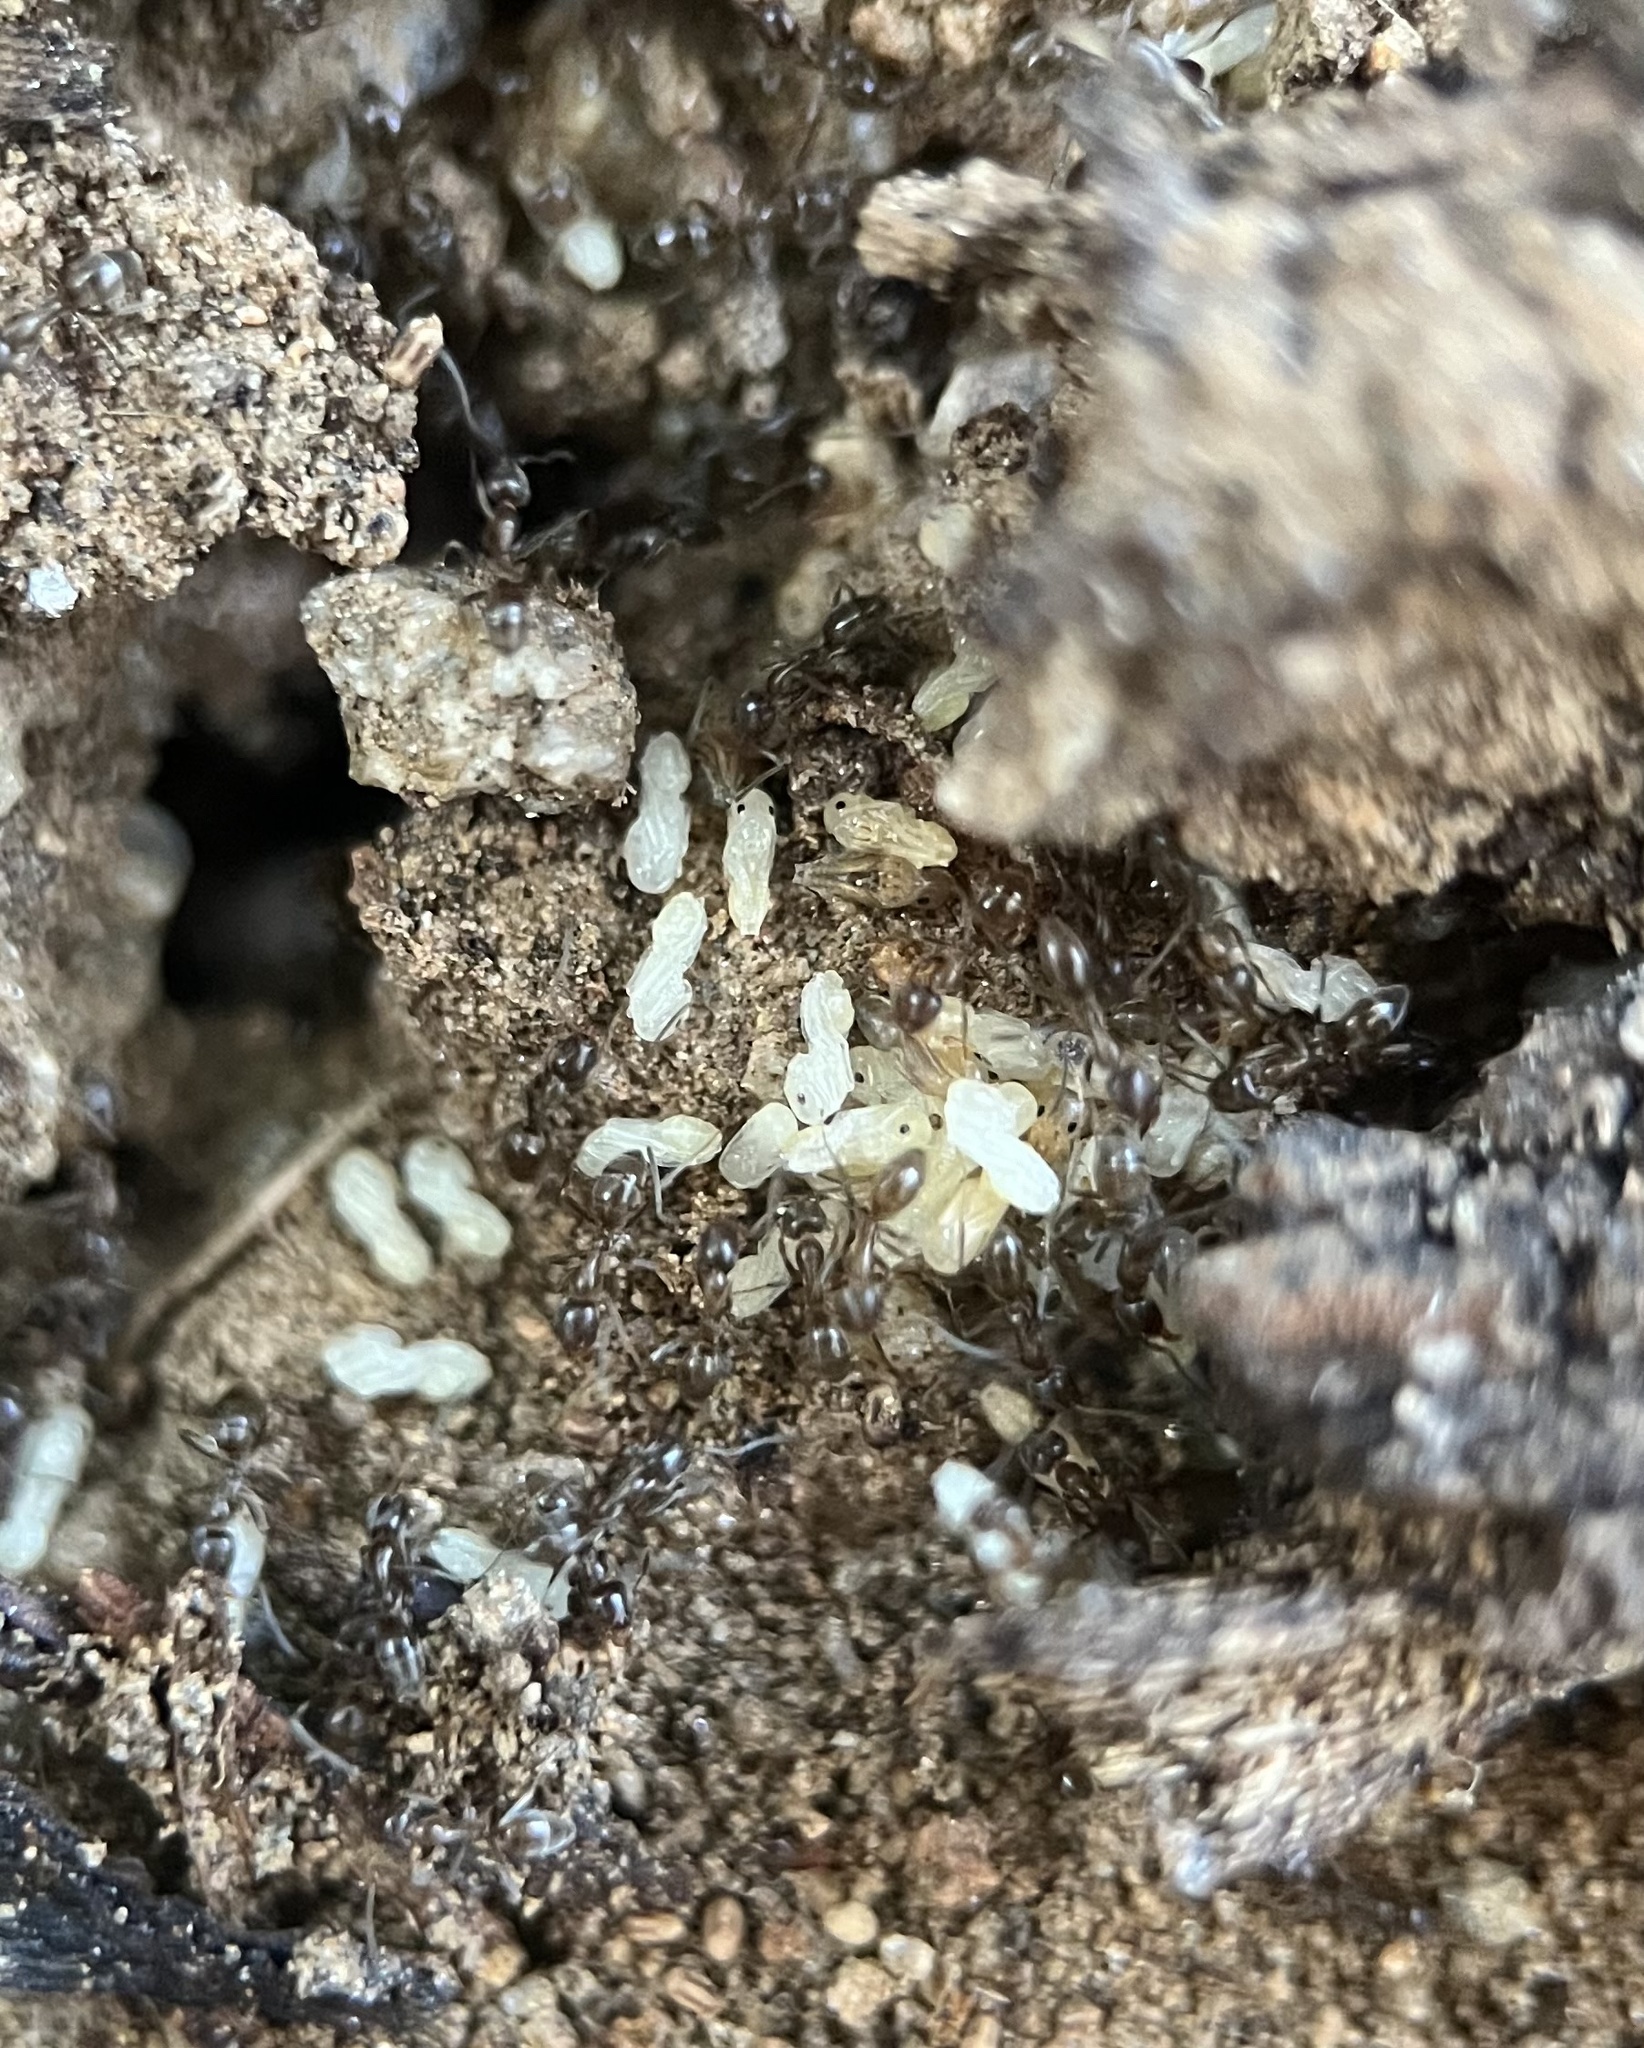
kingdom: Animalia
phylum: Arthropoda
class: Insecta
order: Hymenoptera
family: Formicidae
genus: Linepithema
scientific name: Linepithema humile
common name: Argentine ant
